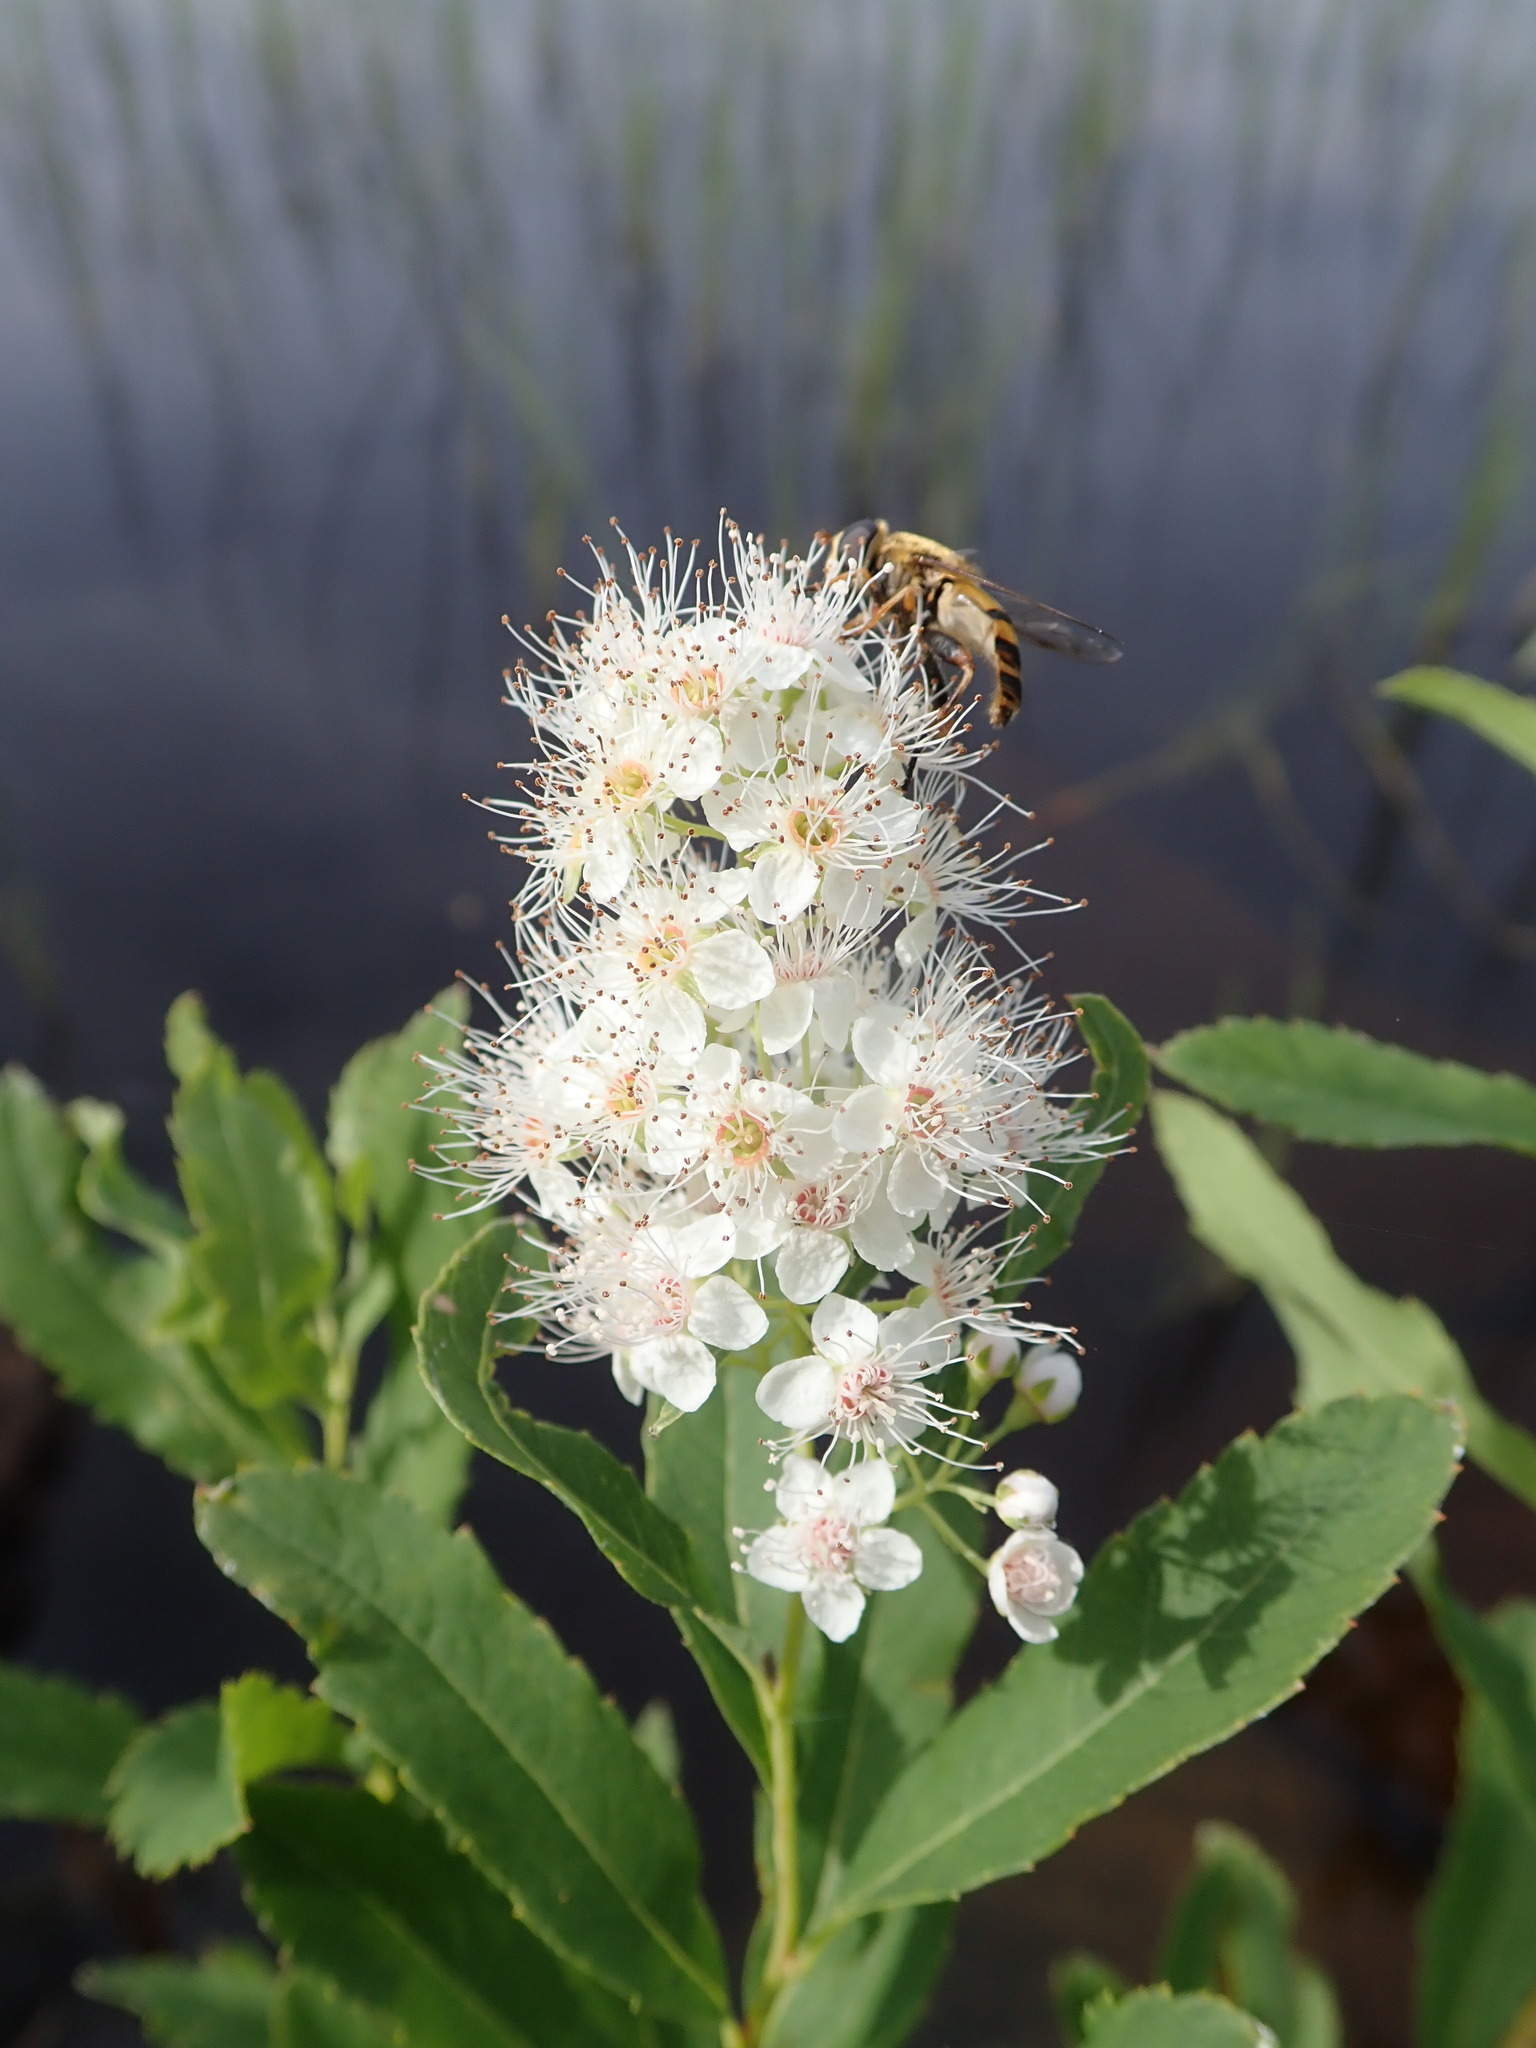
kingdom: Plantae
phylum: Tracheophyta
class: Magnoliopsida
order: Rosales
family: Rosaceae
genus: Spiraea
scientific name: Spiraea alba
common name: Pale bridewort
